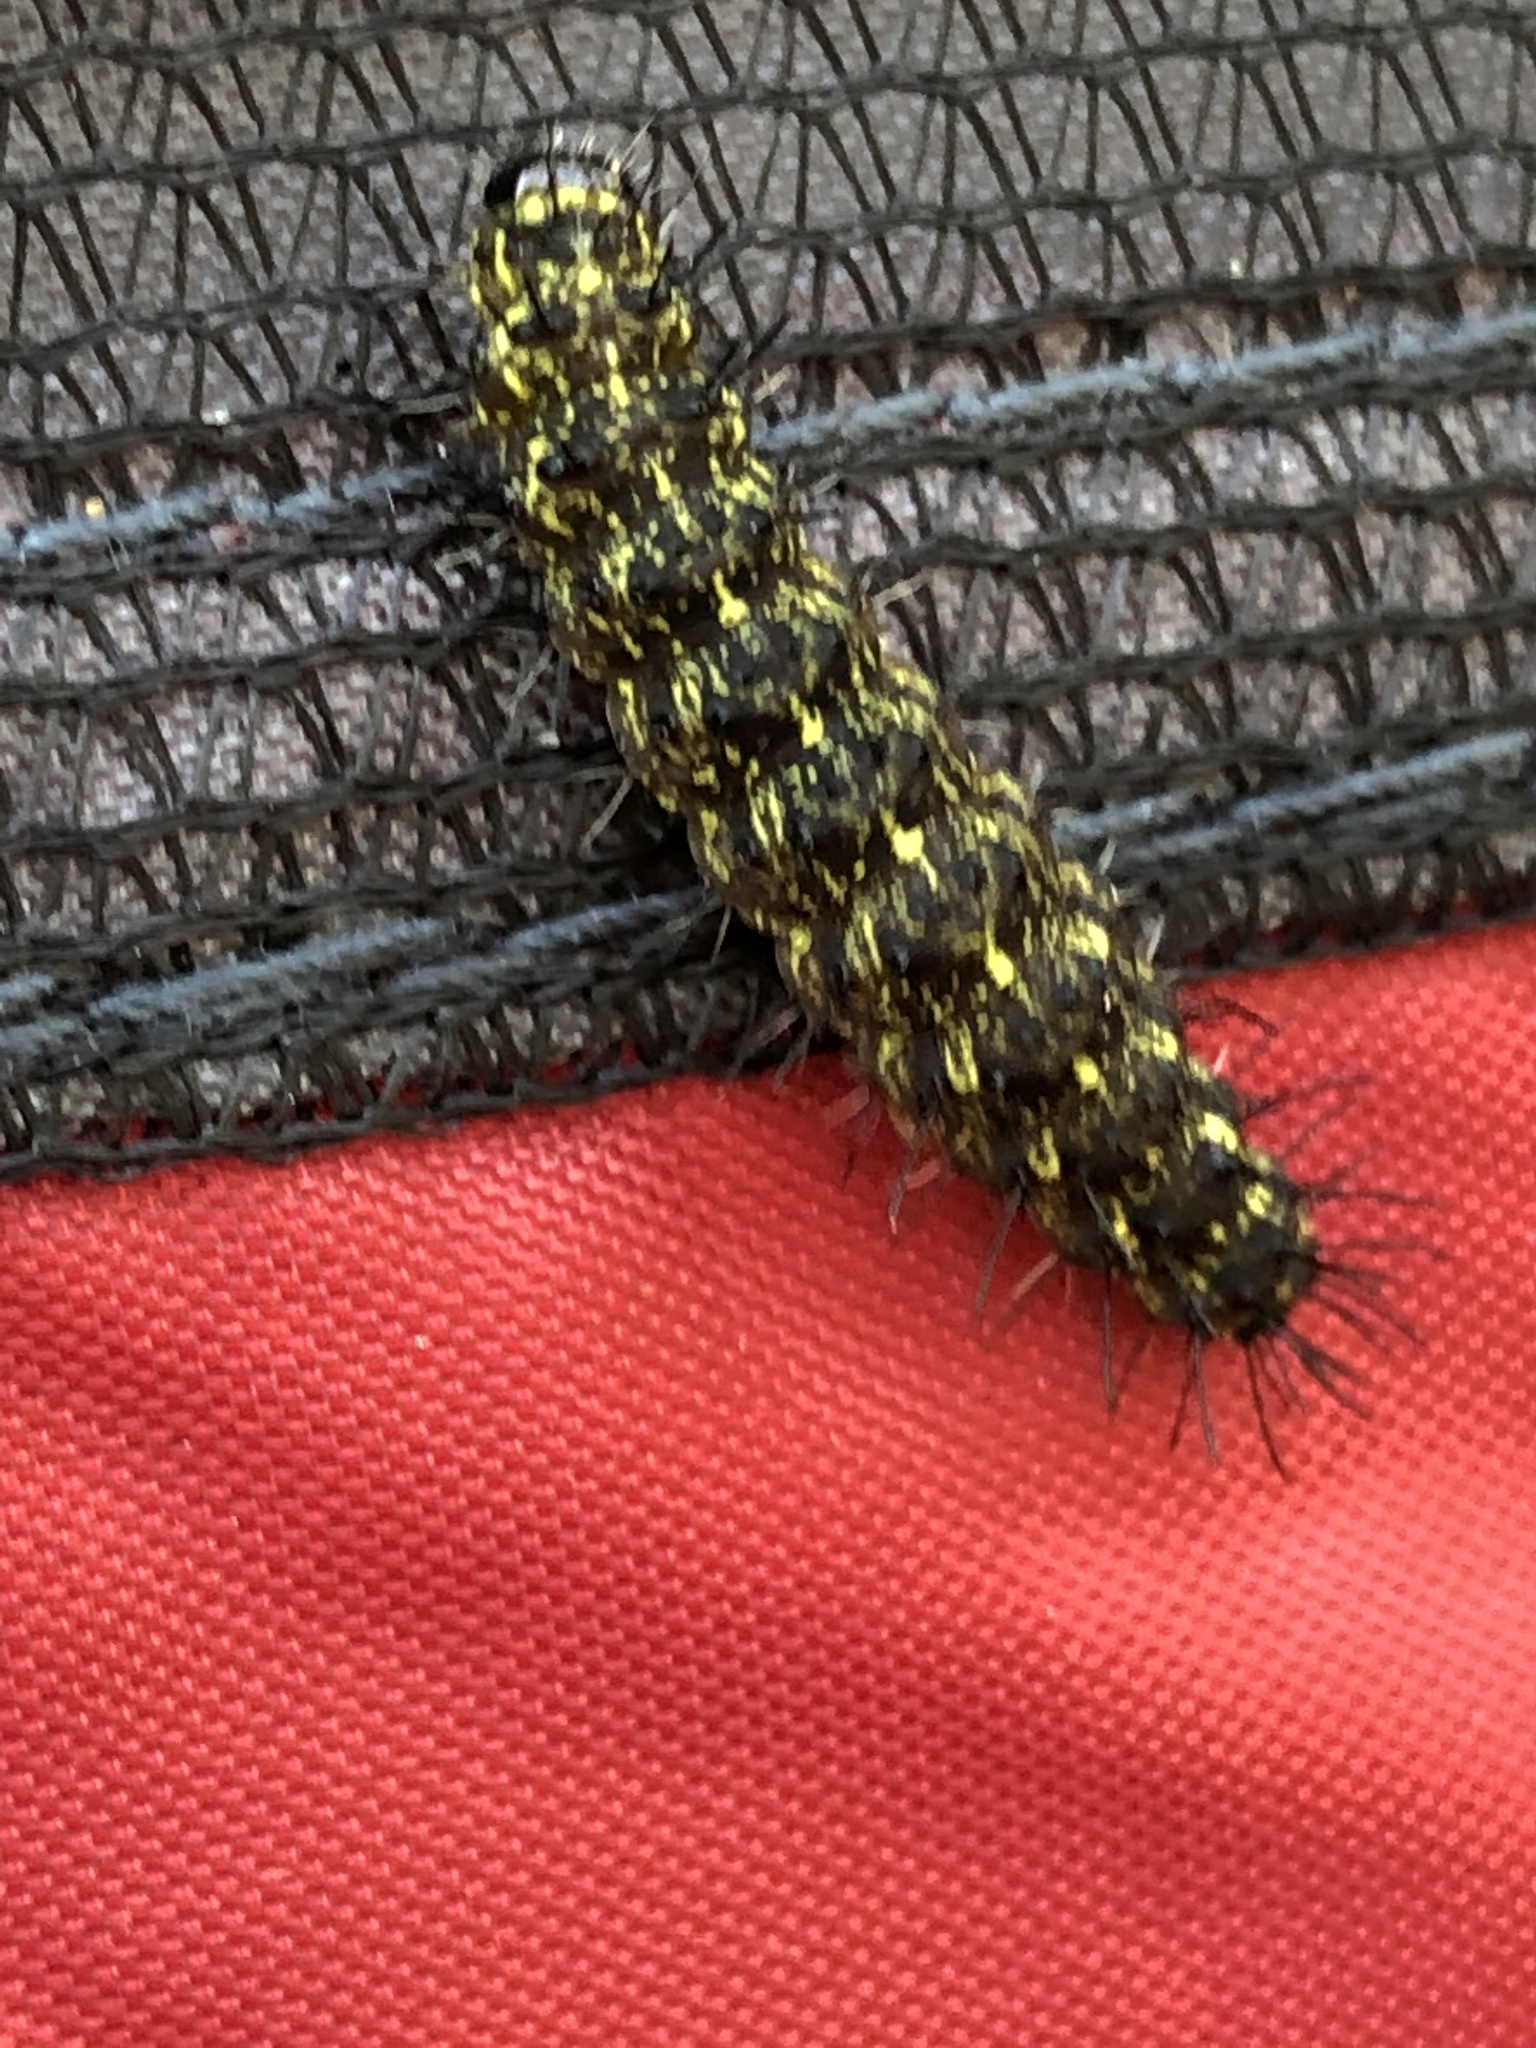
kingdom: Animalia
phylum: Arthropoda
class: Insecta
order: Lepidoptera
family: Erebidae
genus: Hypoprepia
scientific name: Hypoprepia miniata
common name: Scarlet-winged lichen moth
